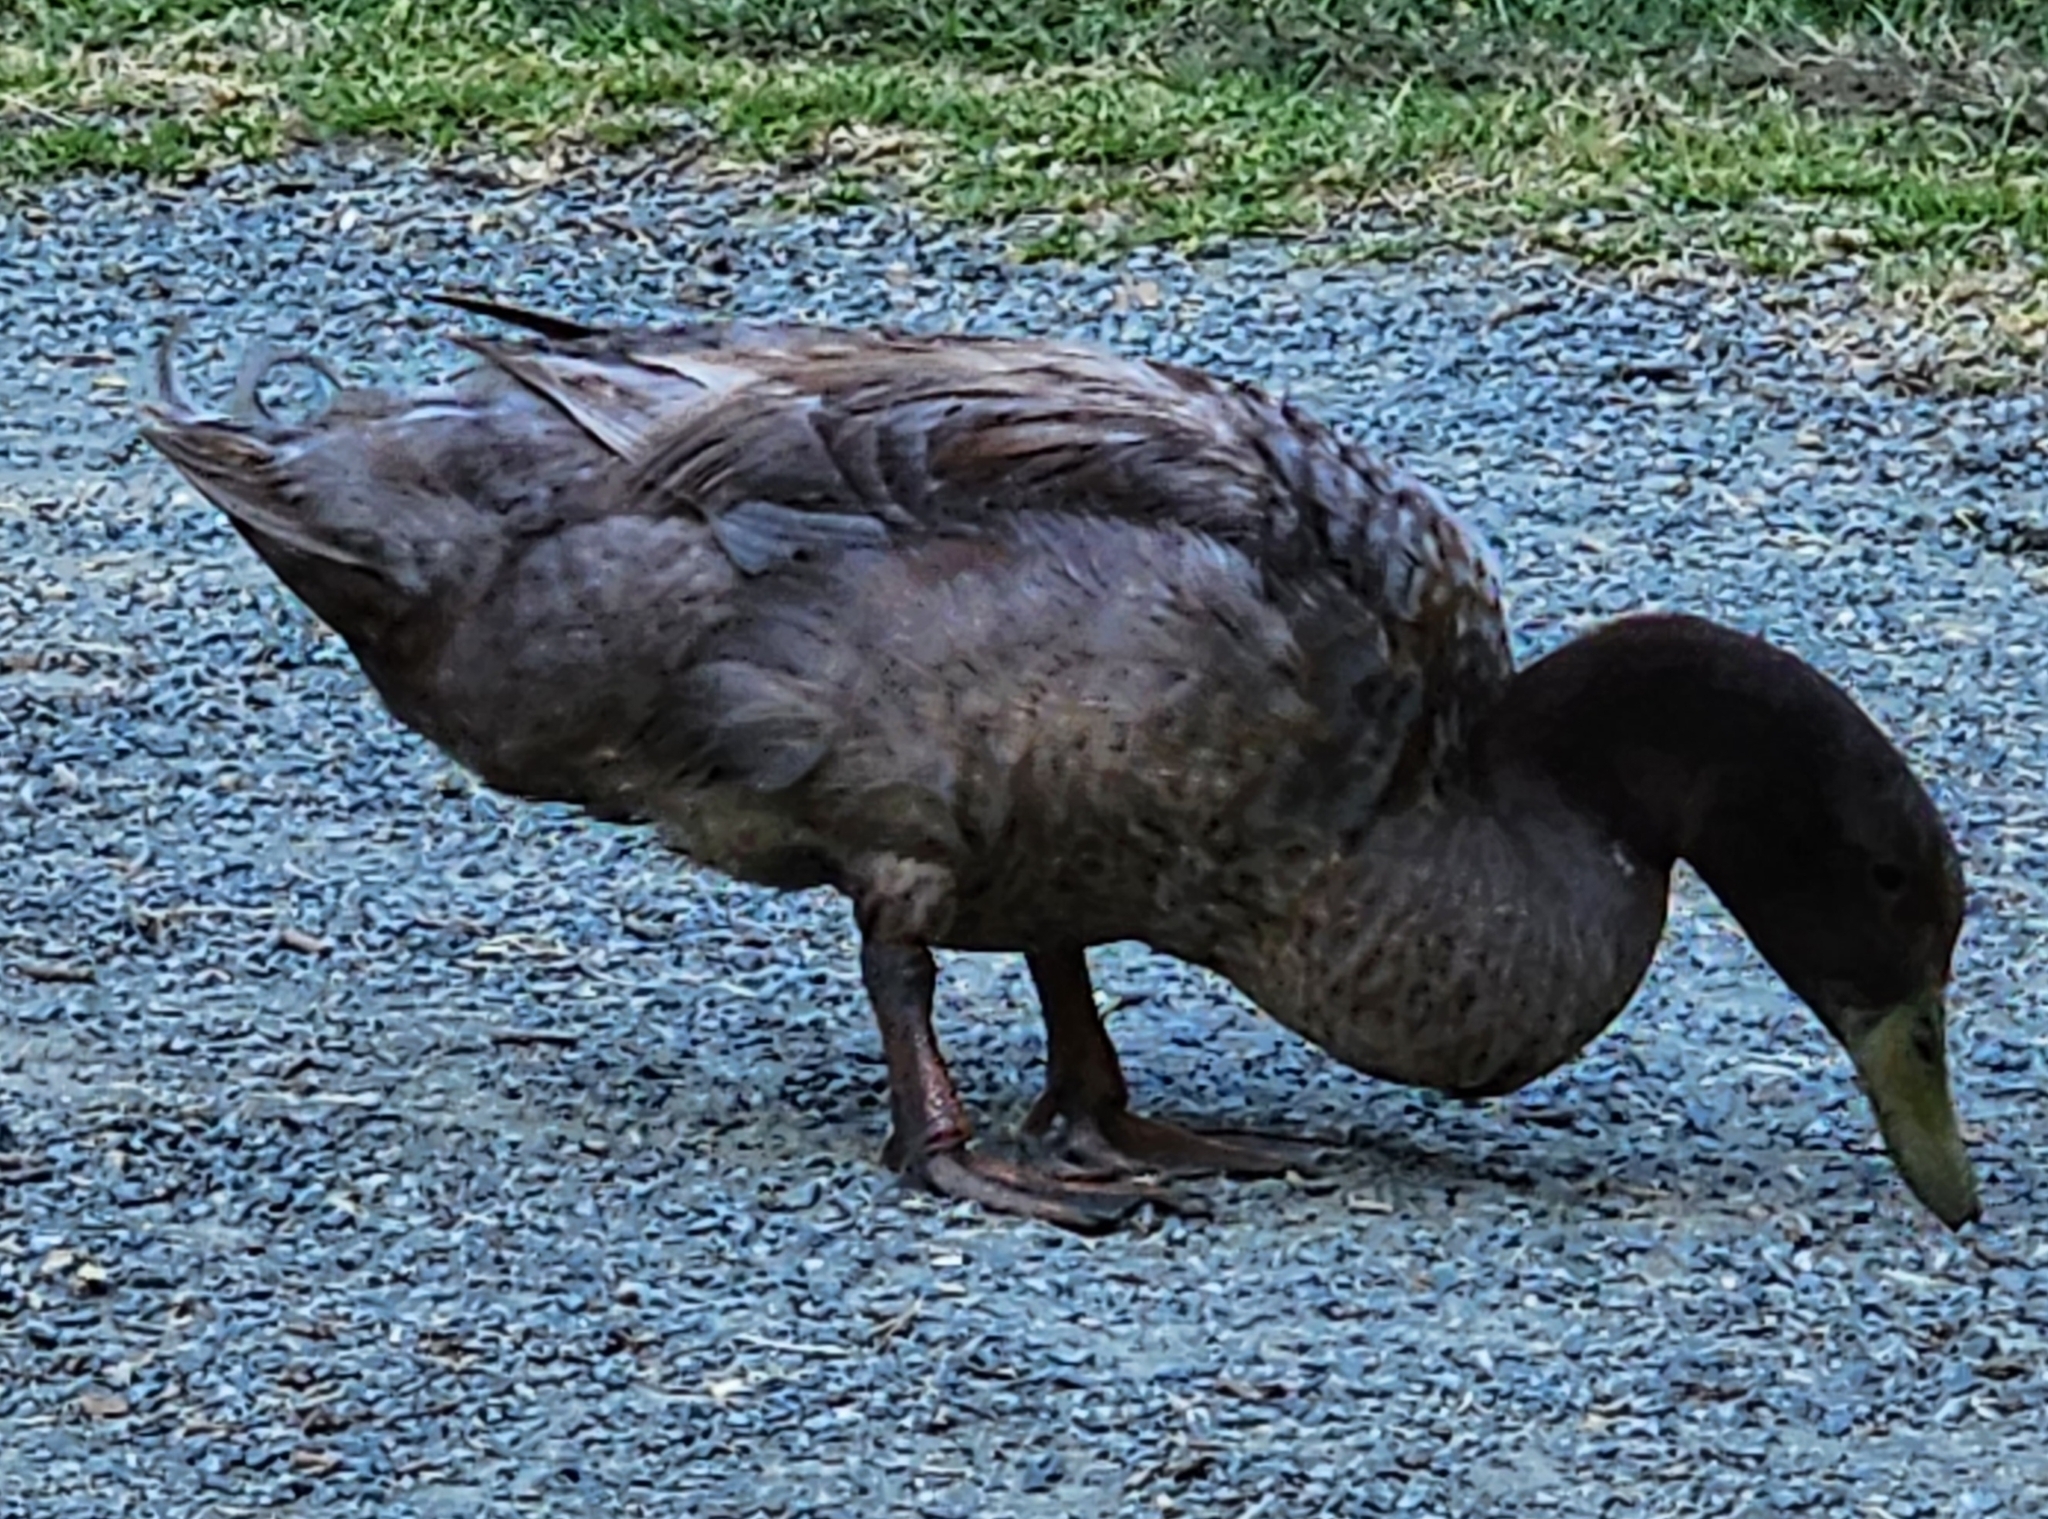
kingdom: Animalia
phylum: Chordata
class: Aves
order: Anseriformes
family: Anatidae
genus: Anas
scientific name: Anas platyrhynchos
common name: Mallard
